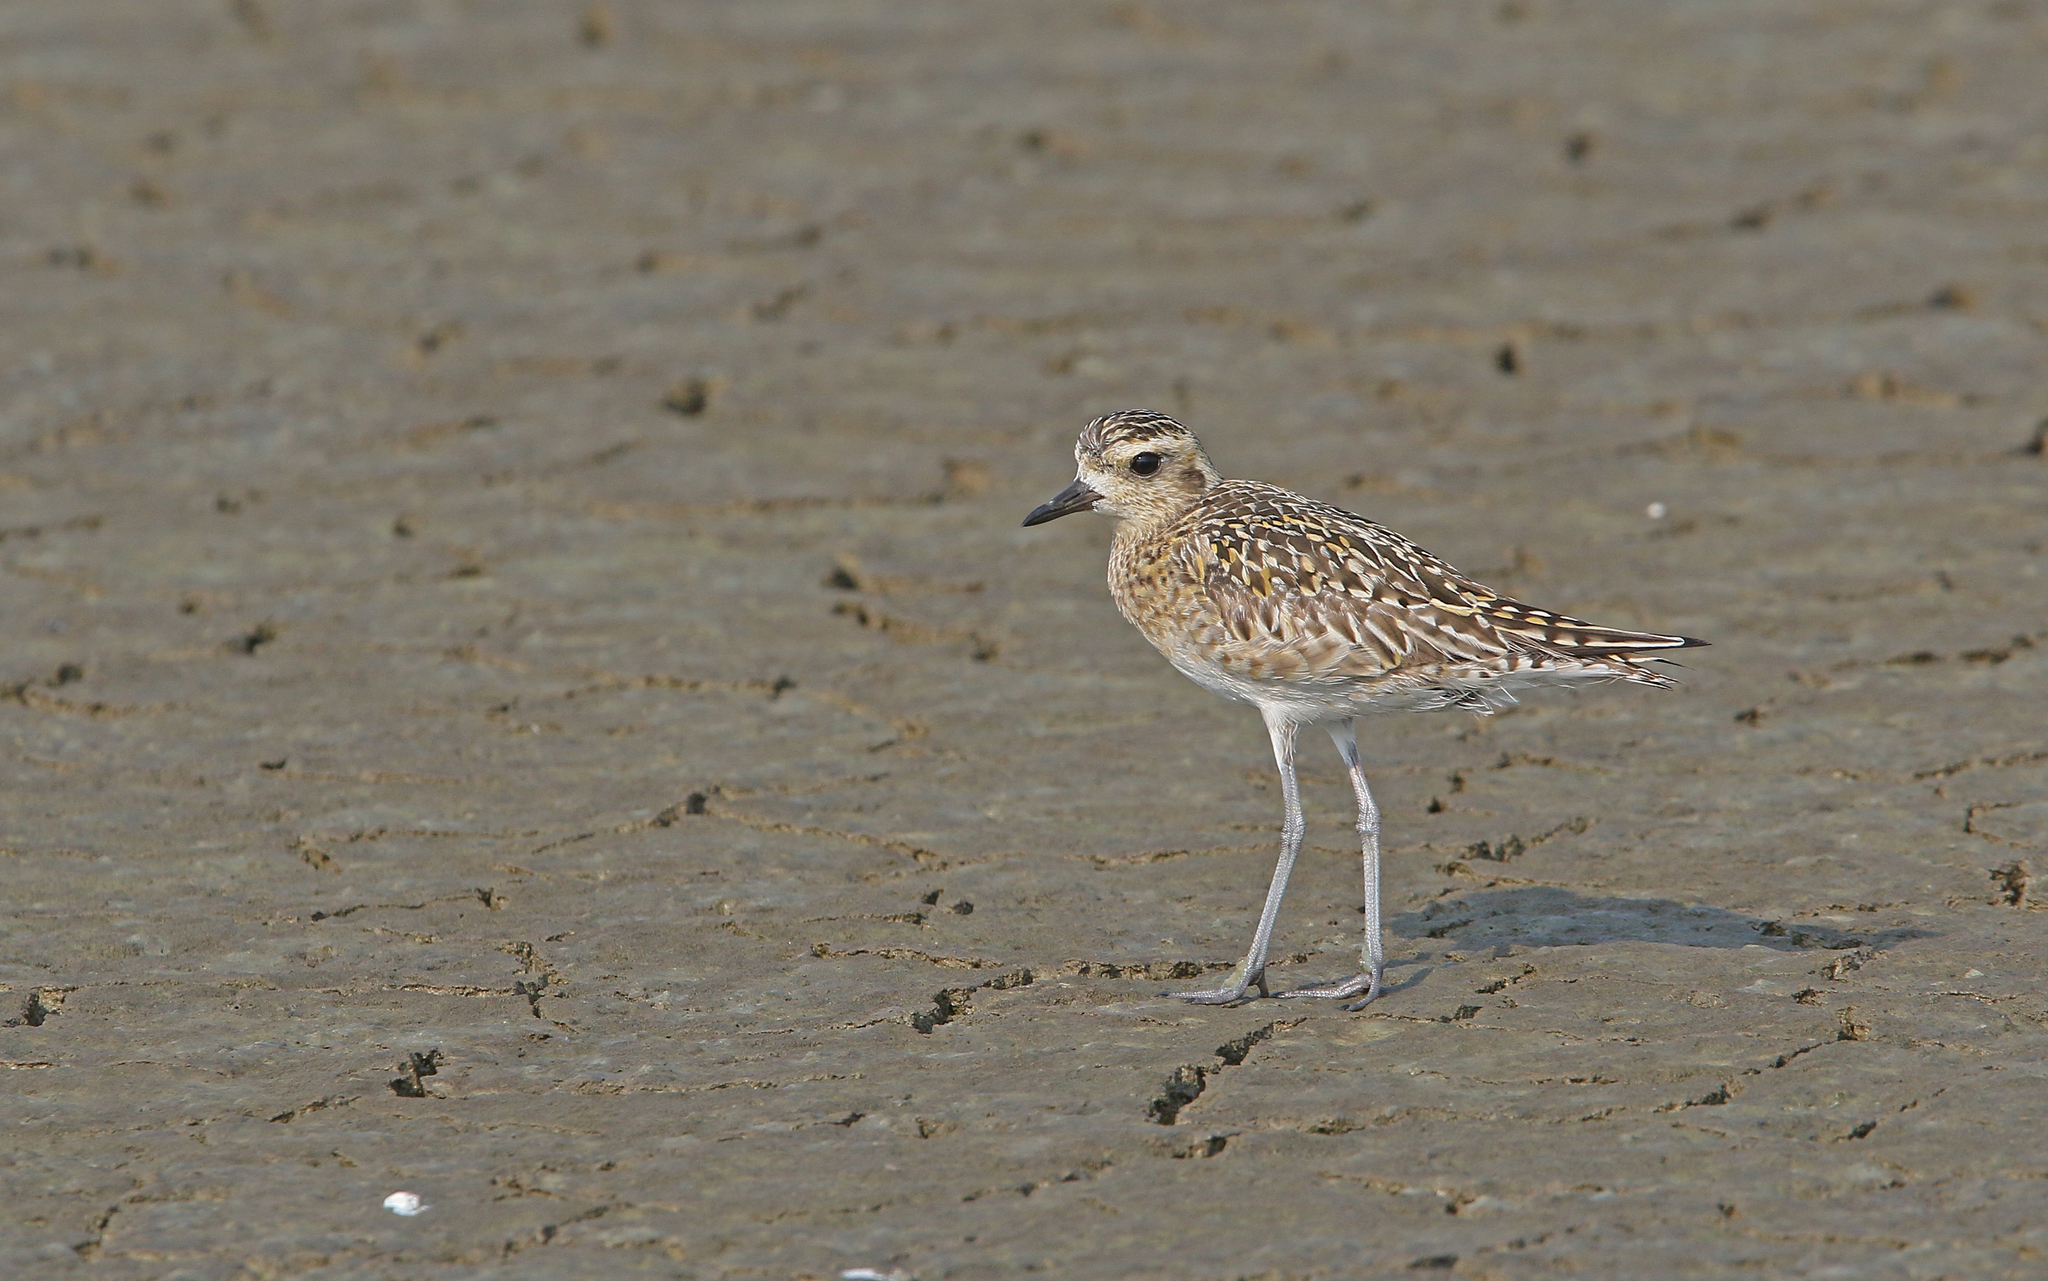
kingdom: Animalia
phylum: Chordata
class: Aves
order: Charadriiformes
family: Charadriidae
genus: Pluvialis
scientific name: Pluvialis fulva
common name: Pacific golden plover
